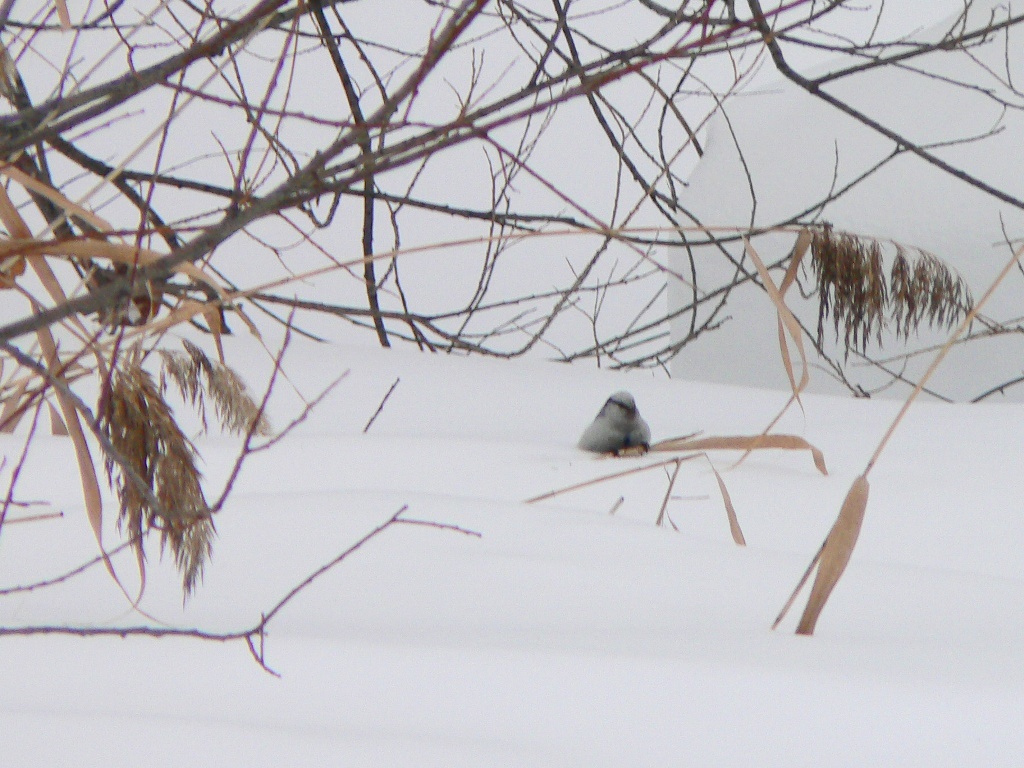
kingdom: Animalia
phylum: Chordata
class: Aves
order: Passeriformes
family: Paridae
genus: Cyanistes
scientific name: Cyanistes cyanus
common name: Azure tit
